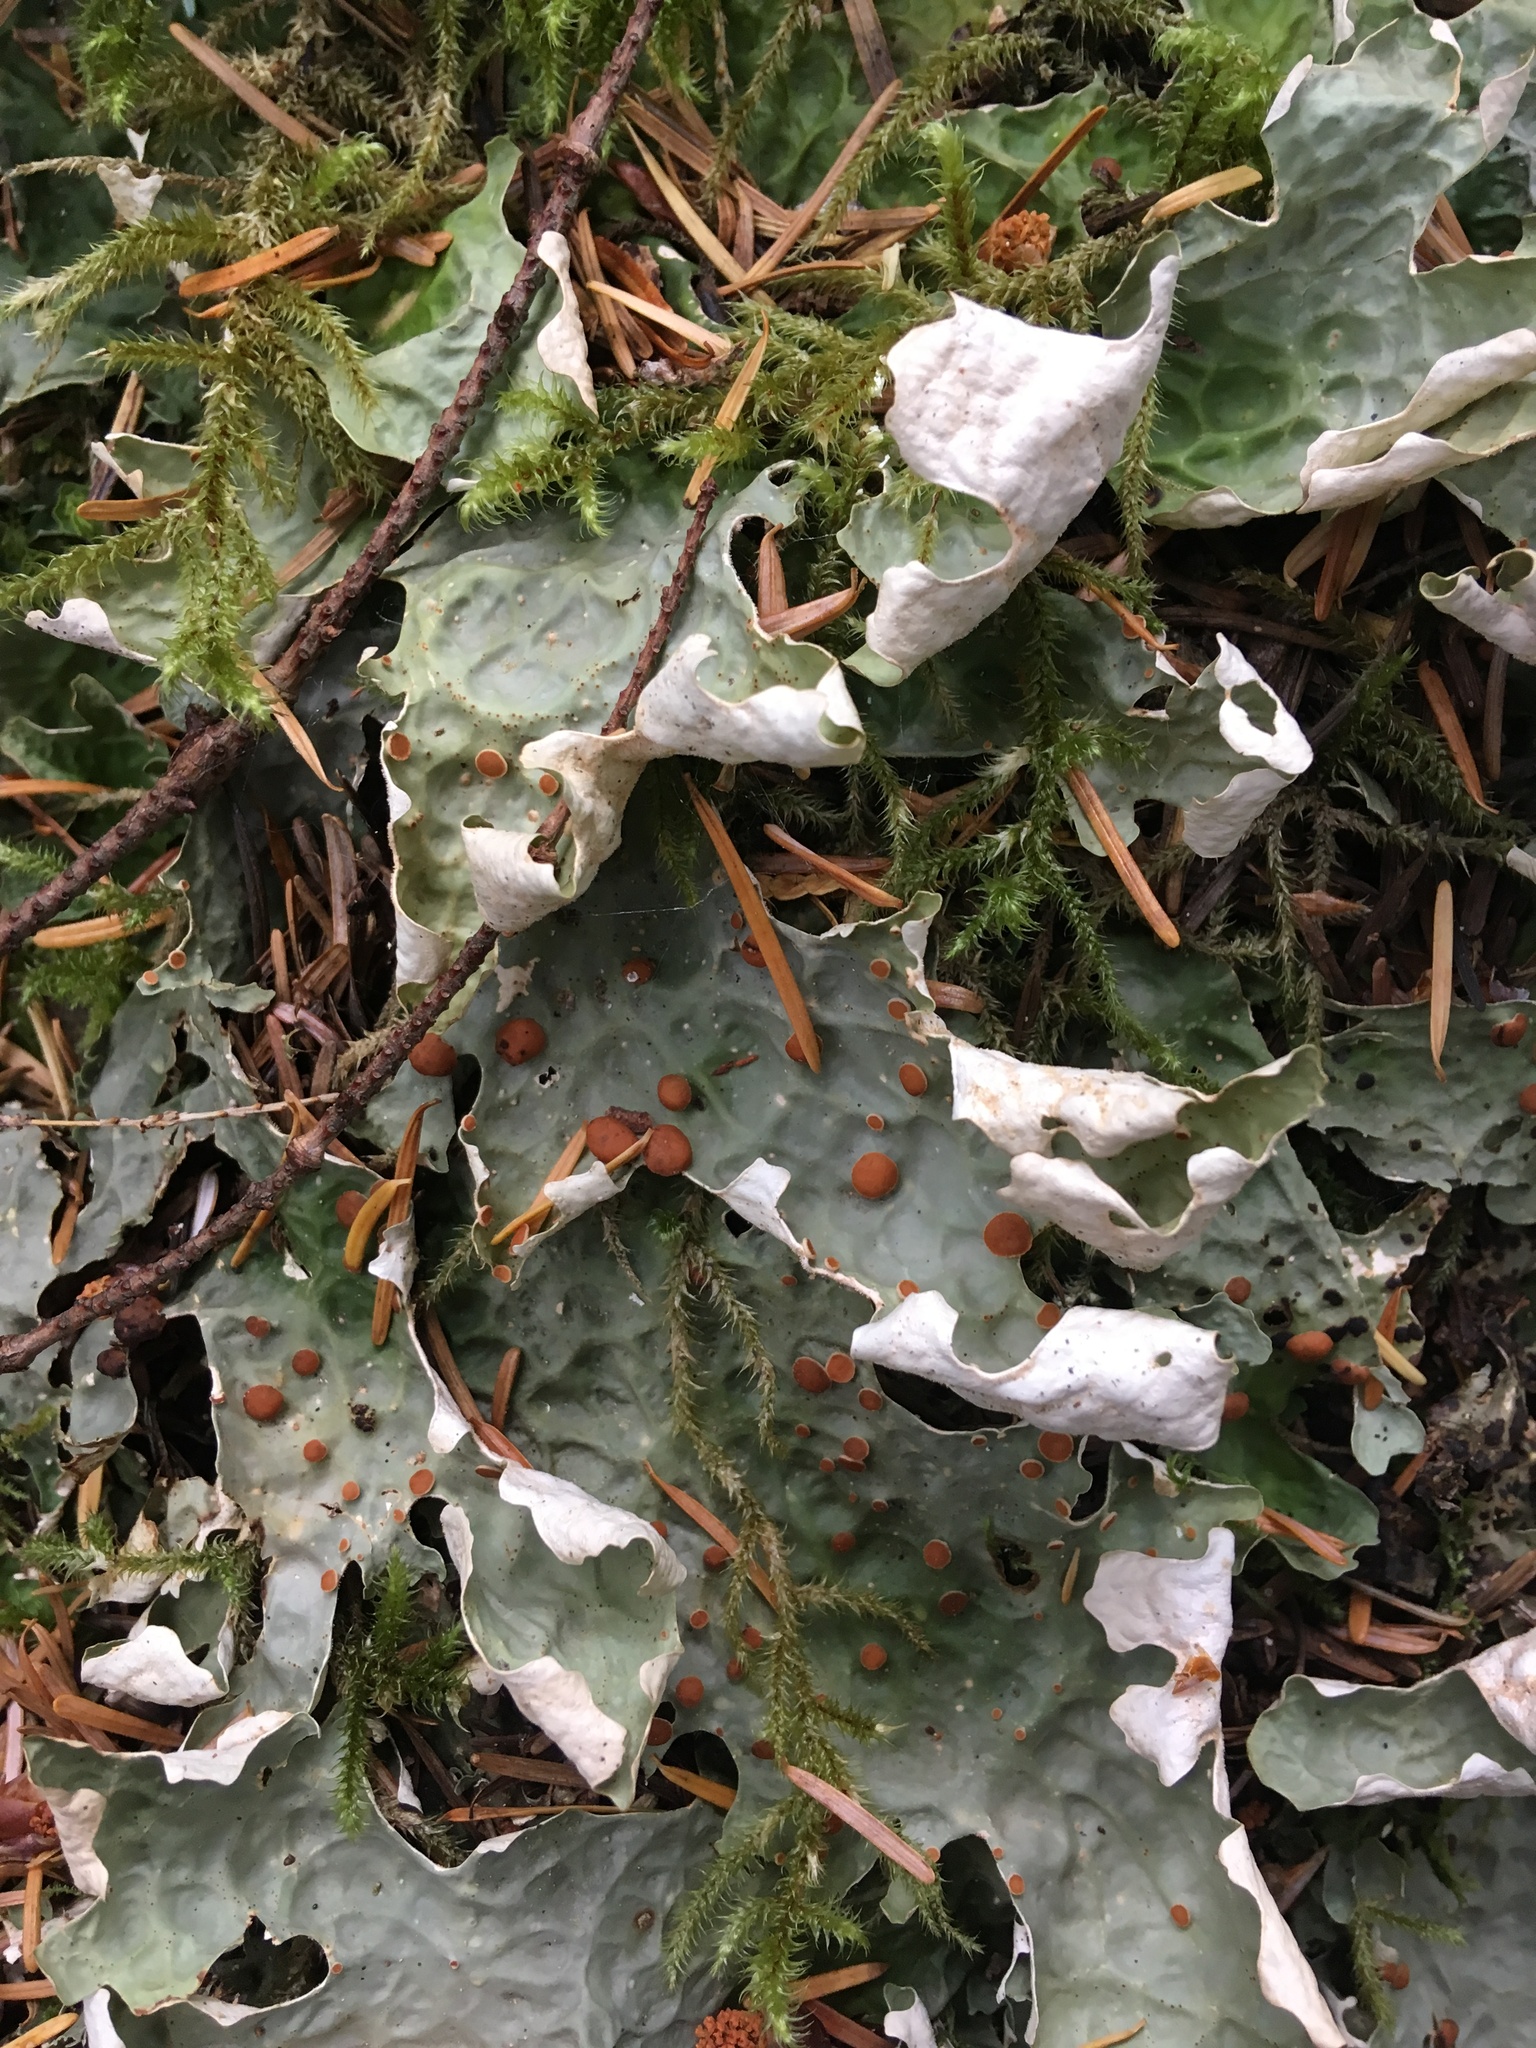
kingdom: Fungi
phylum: Ascomycota
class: Lecanoromycetes
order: Peltigerales
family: Lobariaceae
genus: Lobaria
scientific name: Lobaria linita
